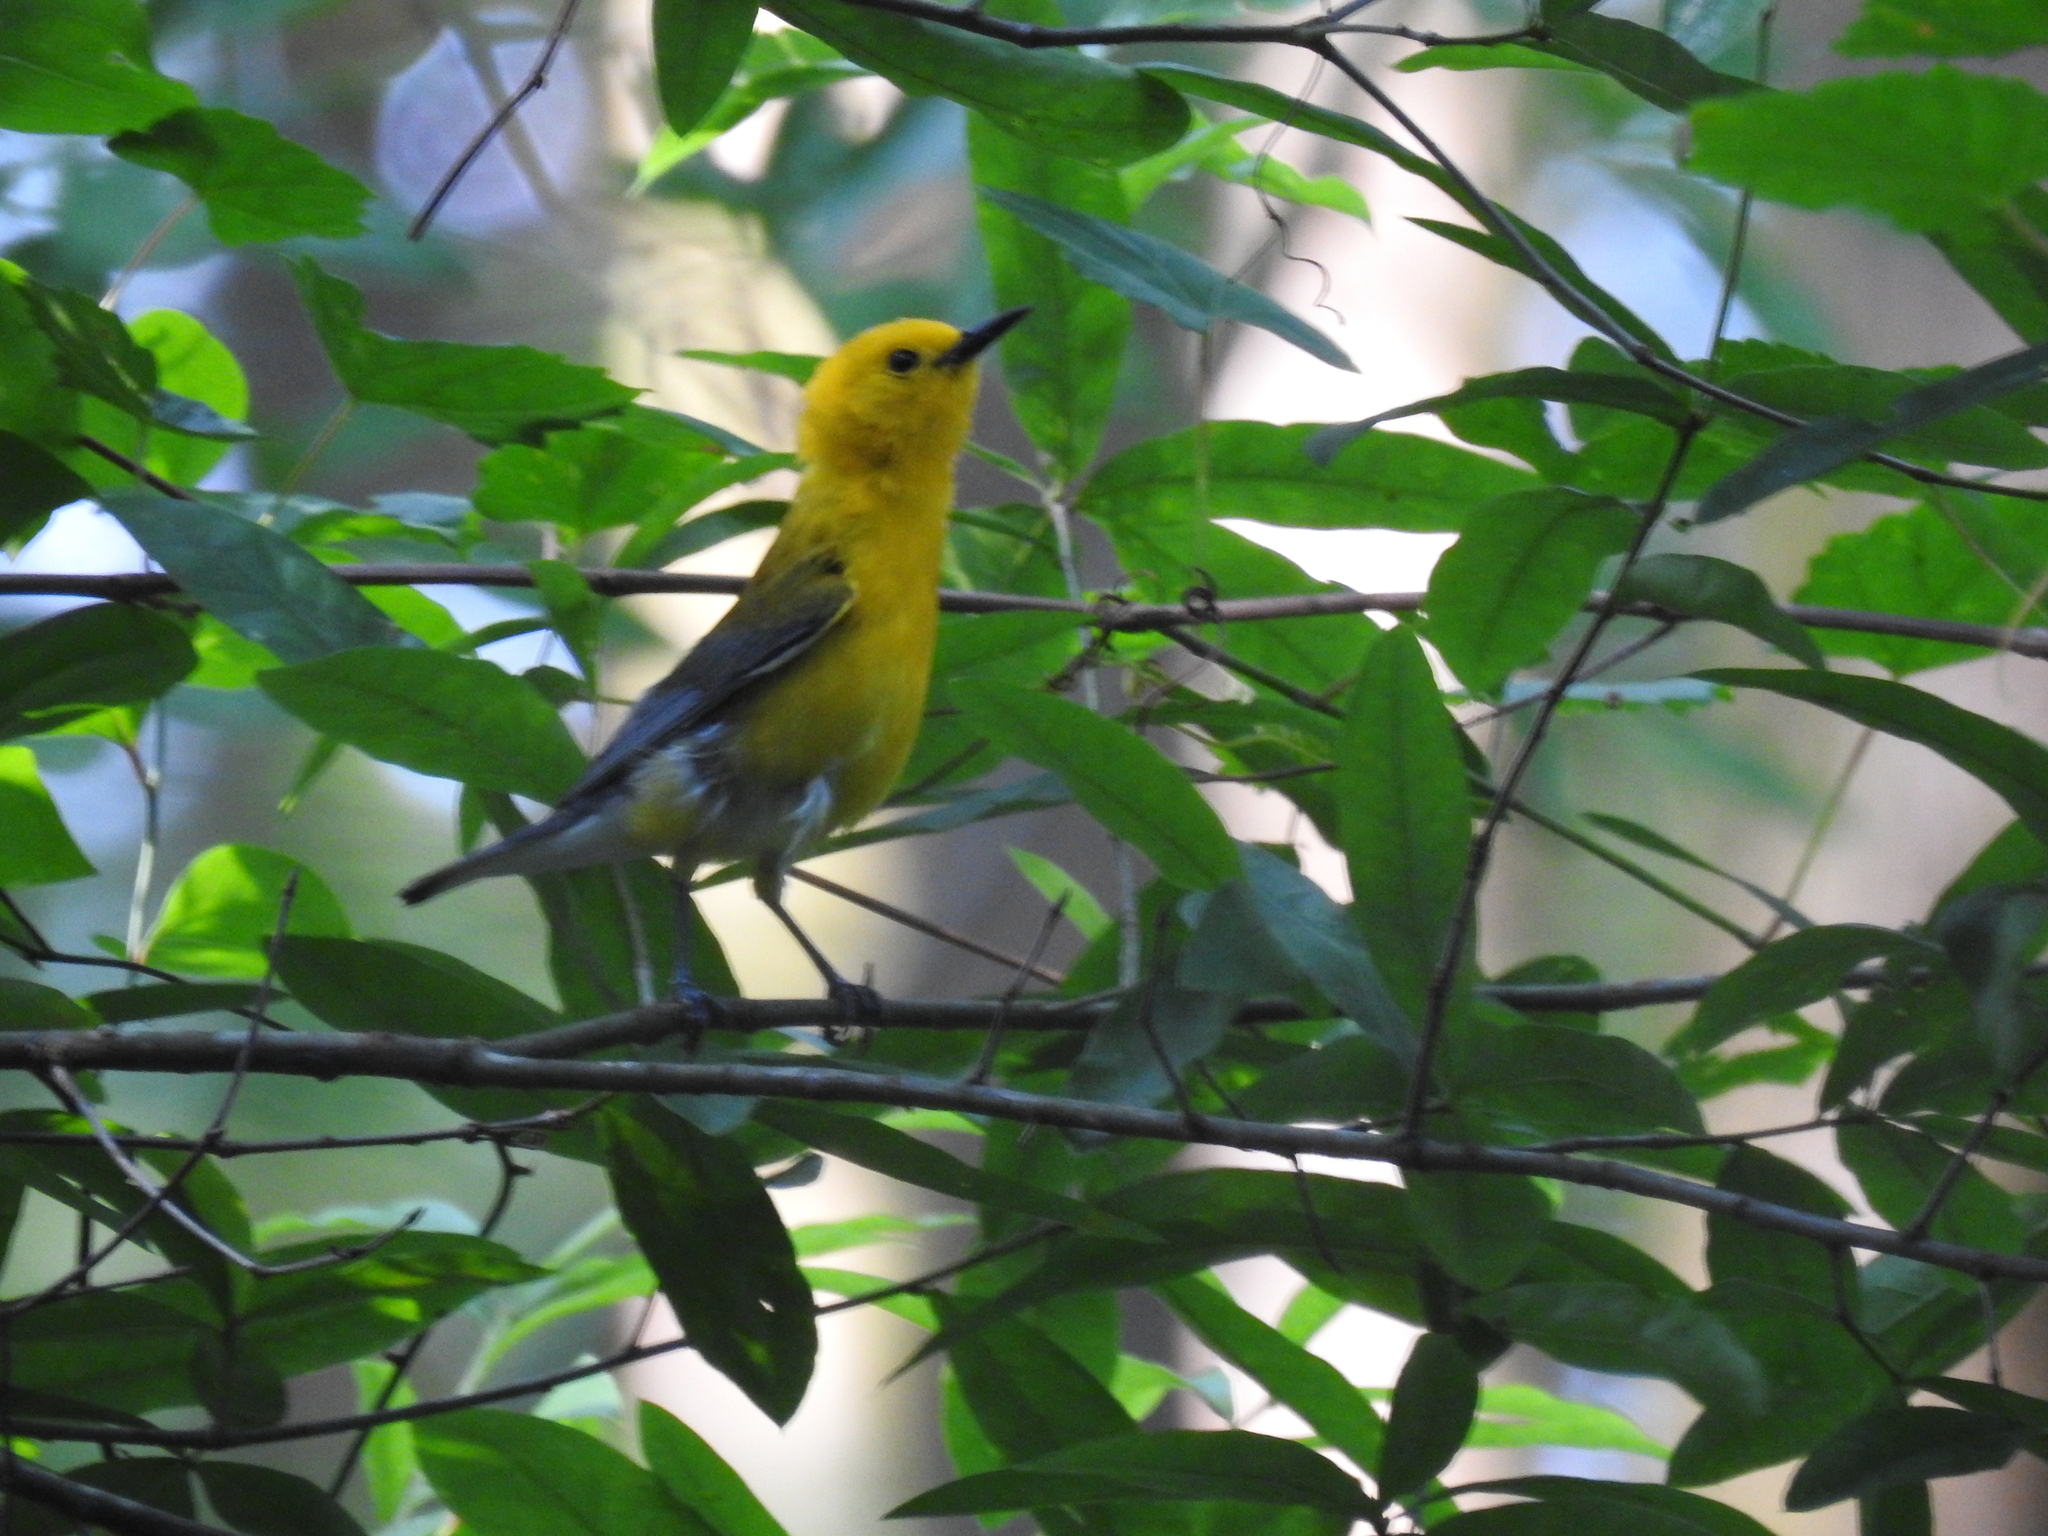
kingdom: Animalia
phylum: Chordata
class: Aves
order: Passeriformes
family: Parulidae
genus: Protonotaria
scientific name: Protonotaria citrea
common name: Prothonotary warbler
